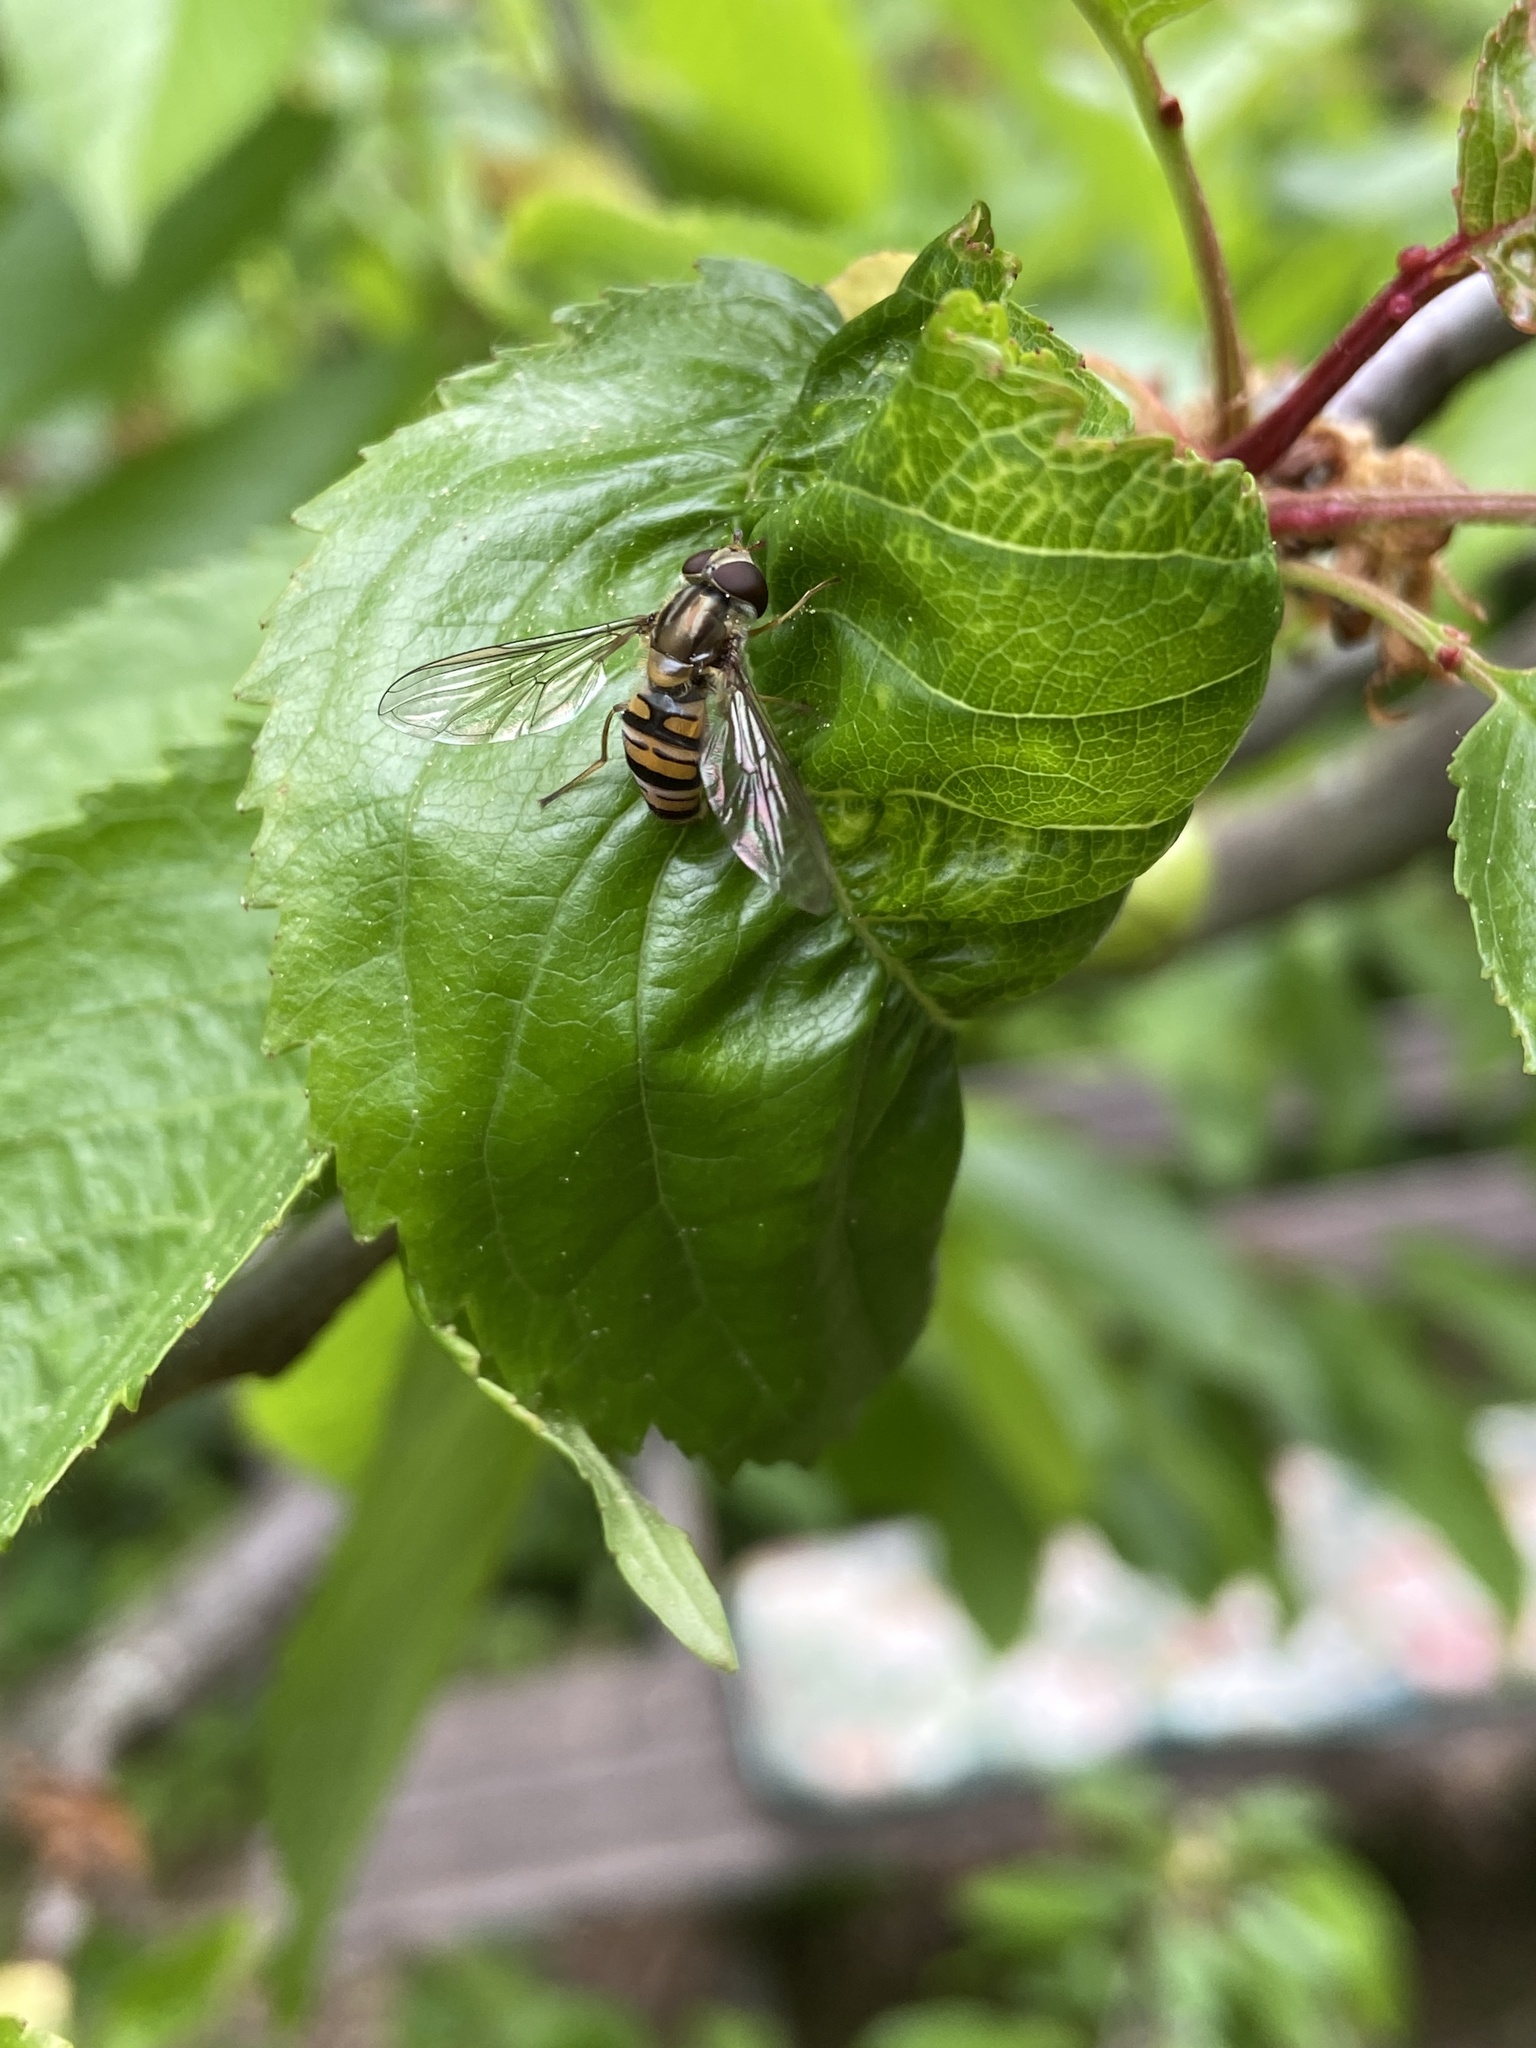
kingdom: Animalia
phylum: Arthropoda
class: Insecta
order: Diptera
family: Syrphidae
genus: Episyrphus
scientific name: Episyrphus balteatus
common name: Marmalade hoverfly
